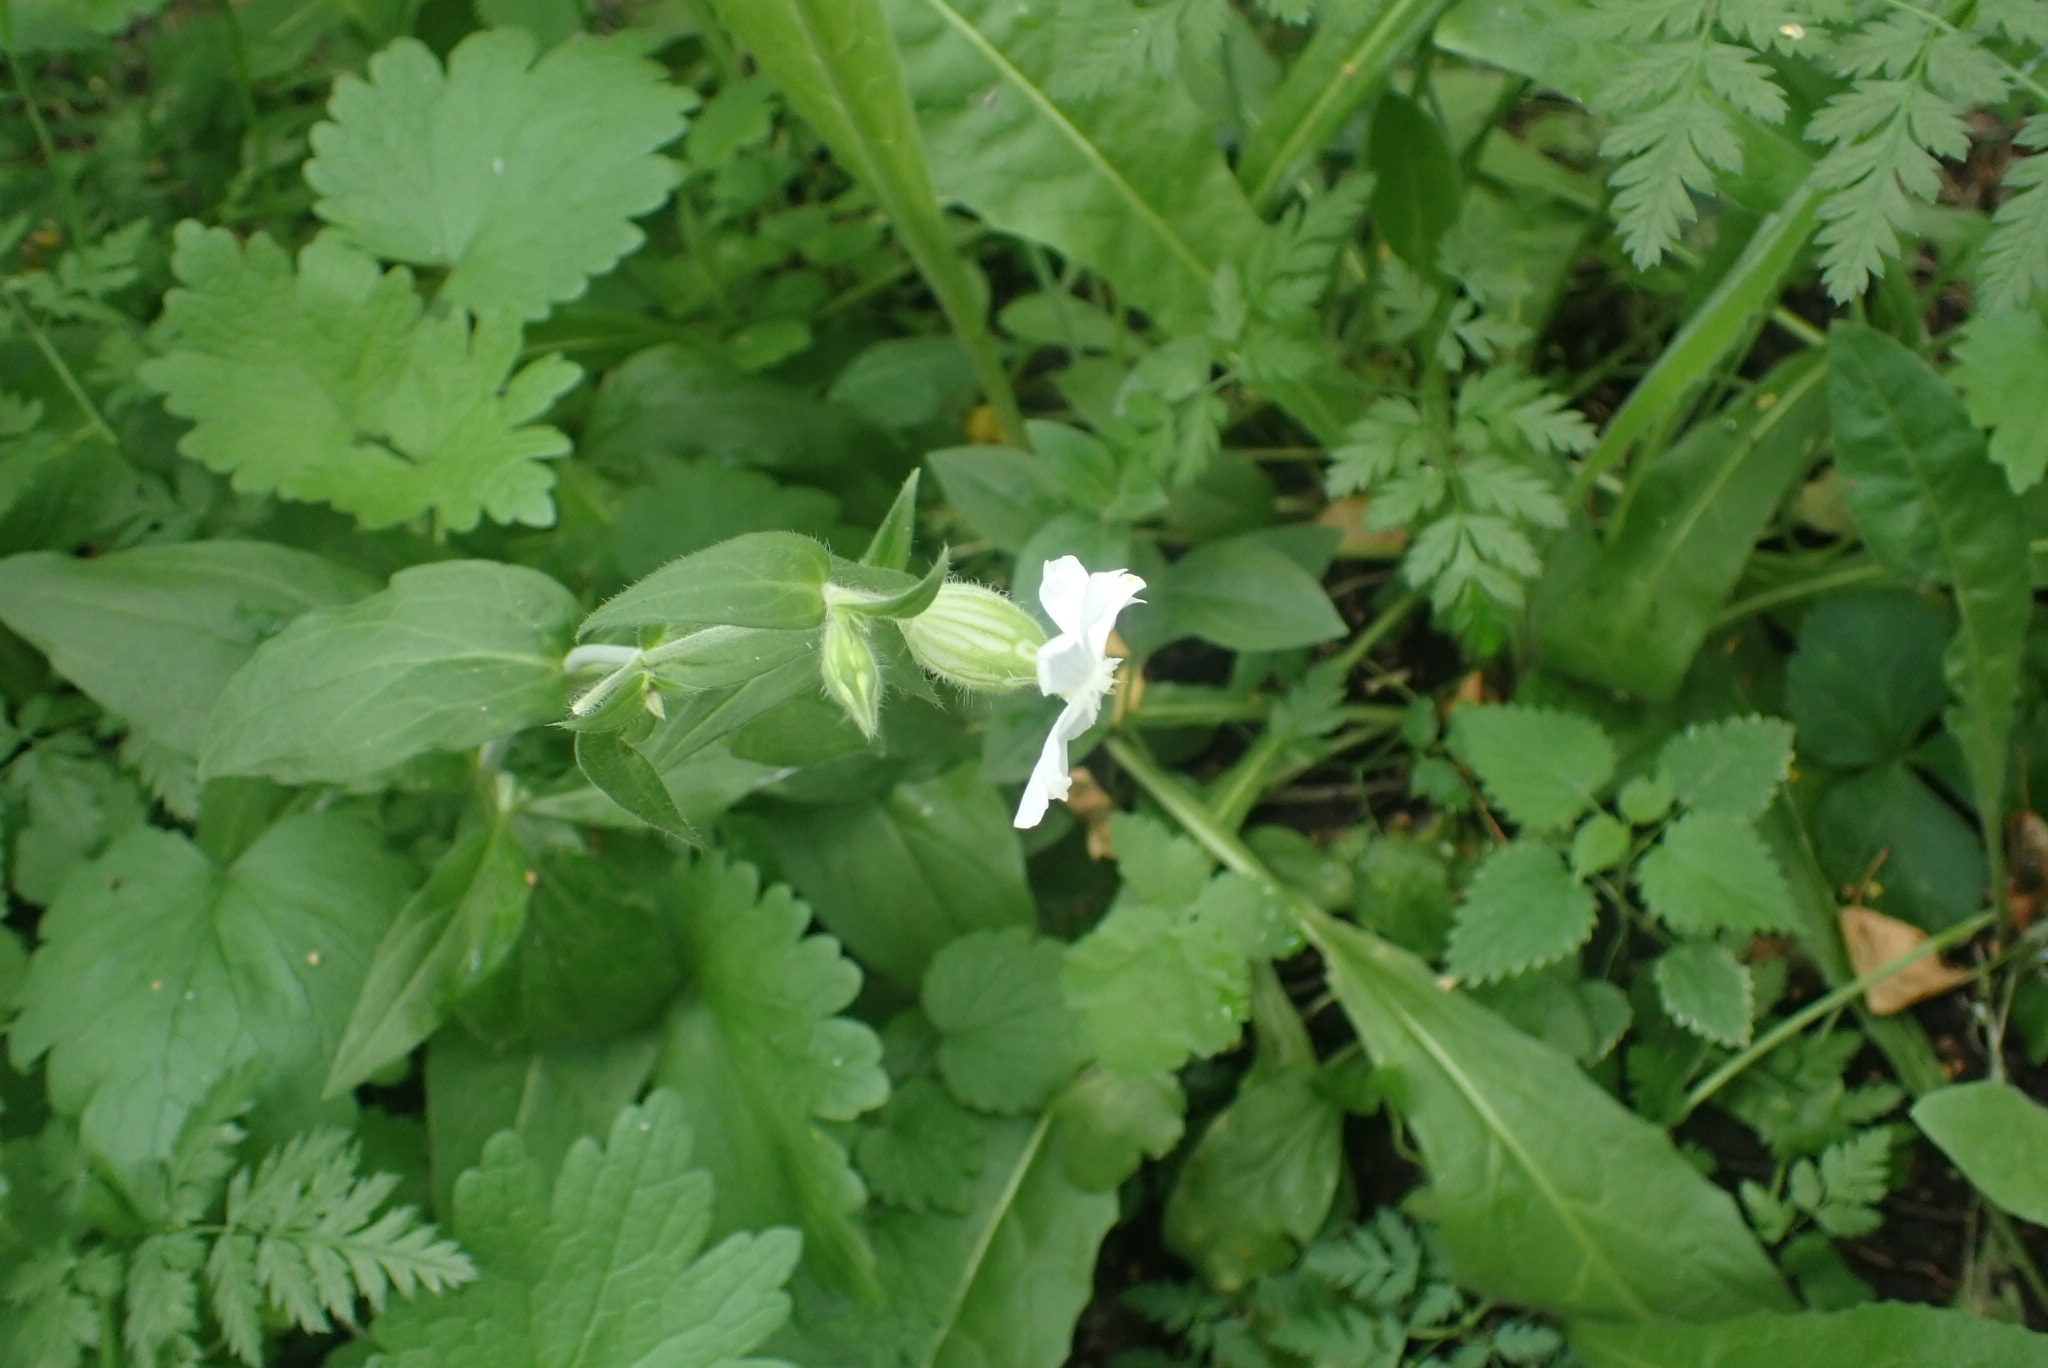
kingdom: Plantae
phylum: Tracheophyta
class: Magnoliopsida
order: Caryophyllales
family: Caryophyllaceae
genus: Silene
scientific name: Silene latifolia
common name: White campion
